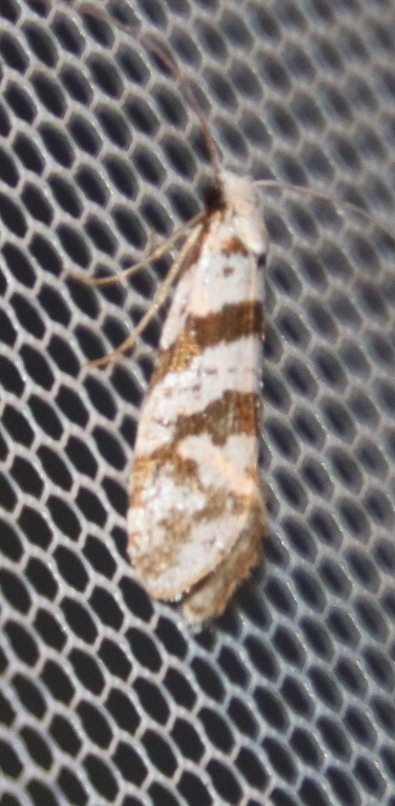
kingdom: Animalia
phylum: Arthropoda
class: Insecta
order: Lepidoptera
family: Adelidae
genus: Ceromitia
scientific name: Ceromitia wahlbergi
